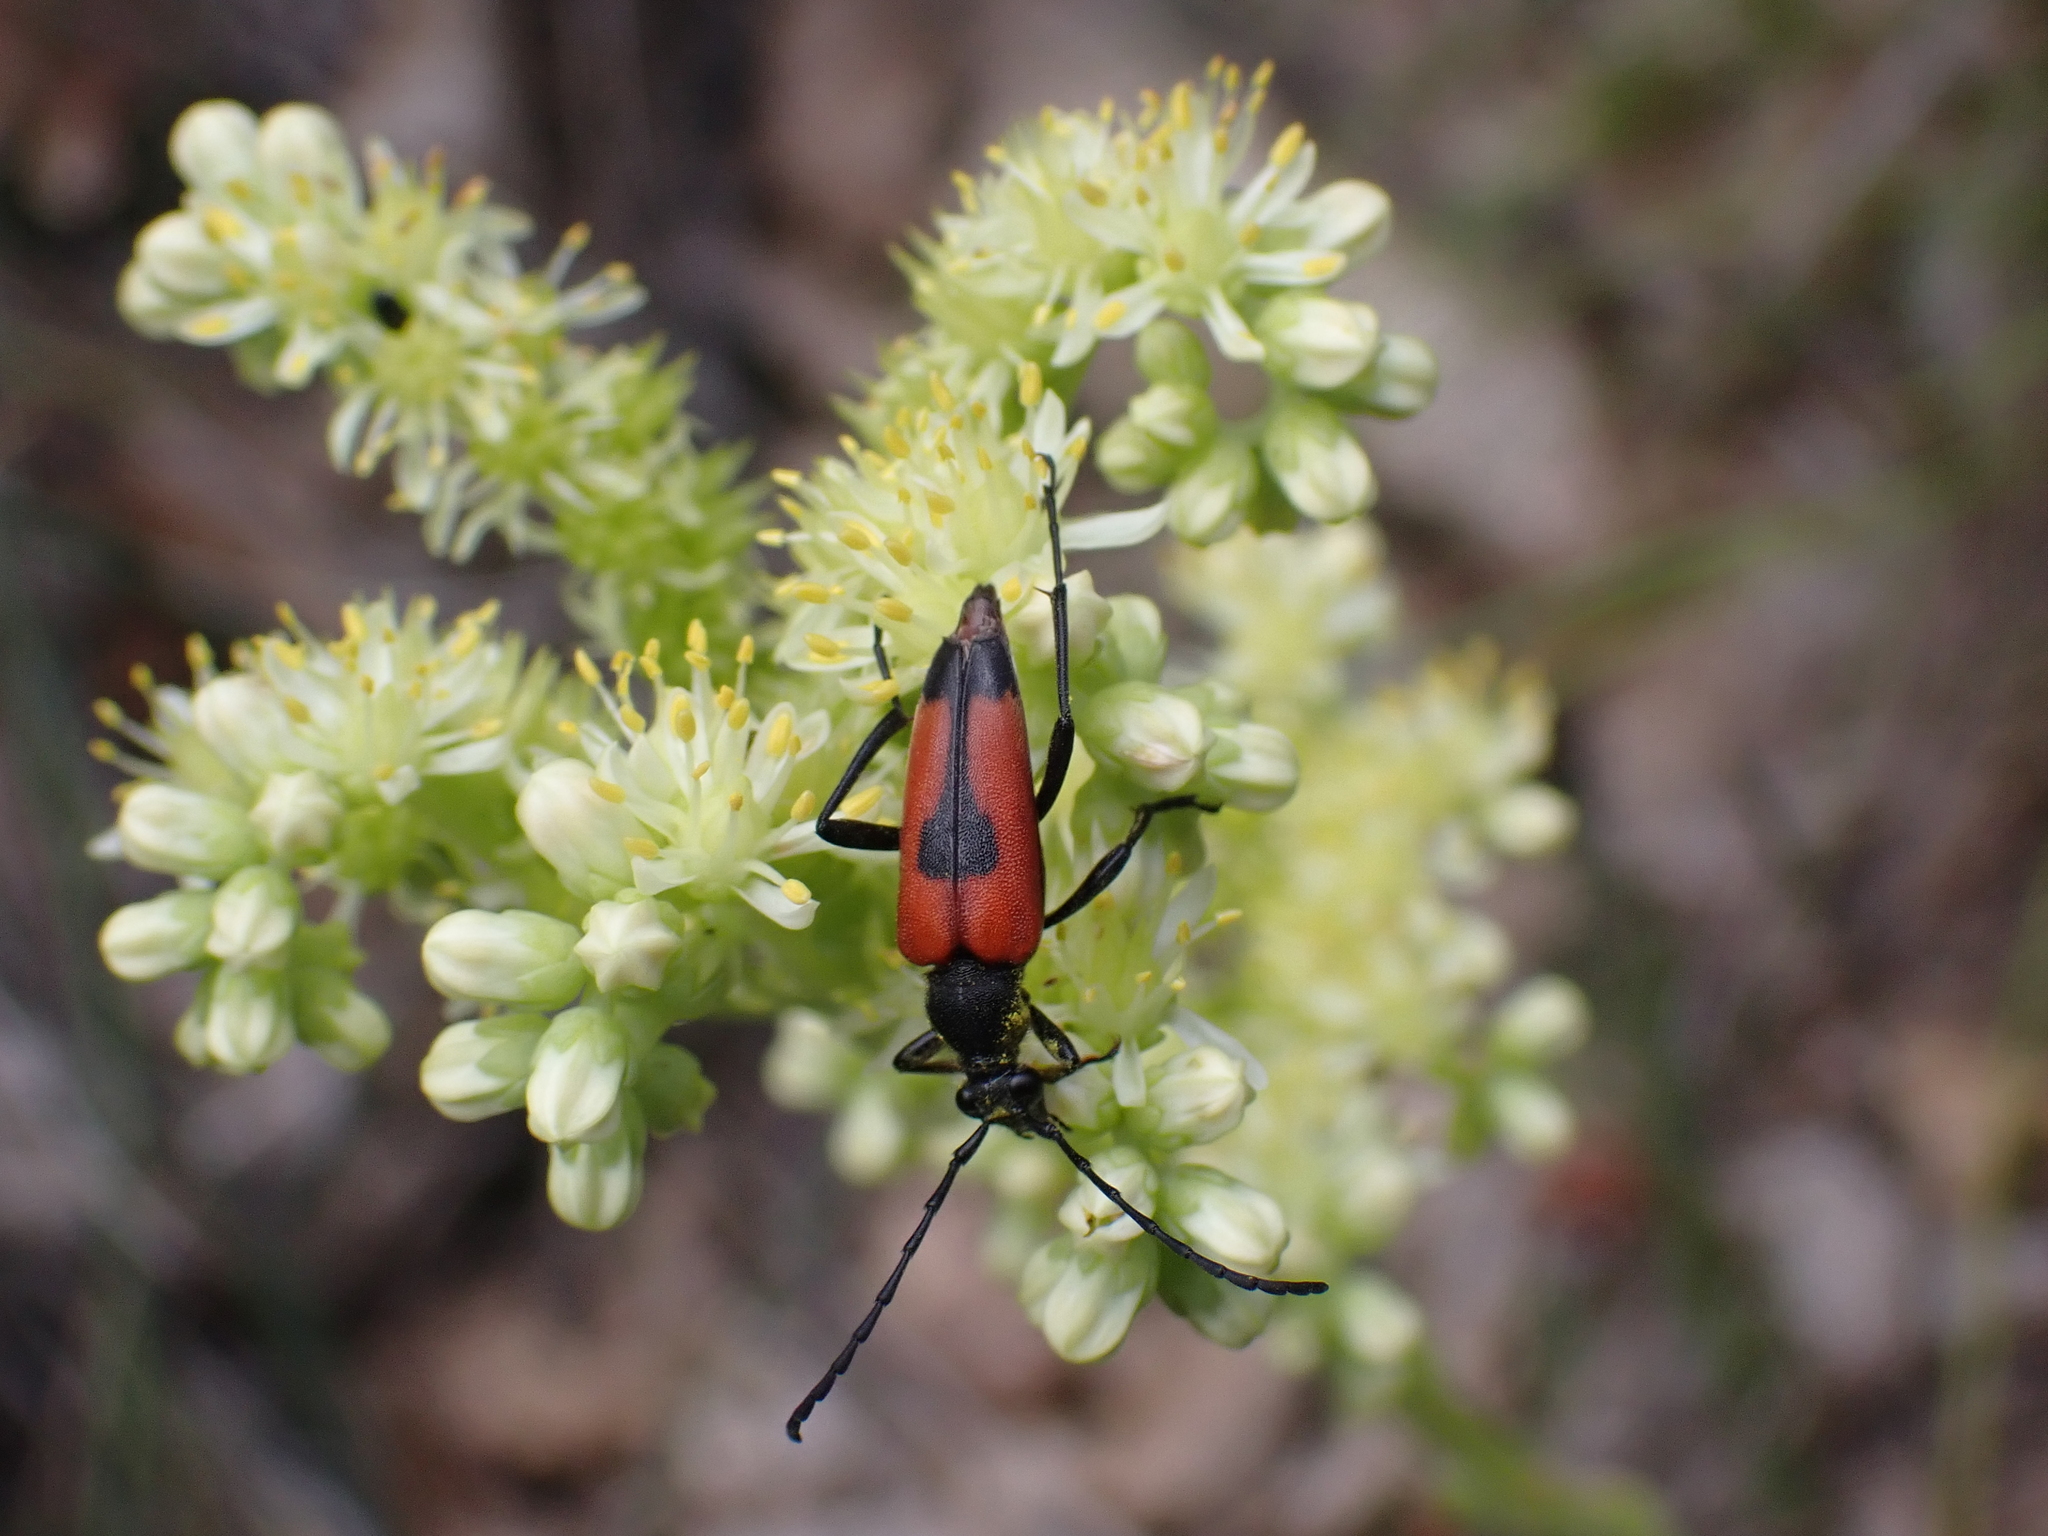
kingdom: Animalia
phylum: Arthropoda
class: Insecta
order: Coleoptera
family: Cerambycidae
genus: Stictoleptura
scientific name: Stictoleptura cordigera
